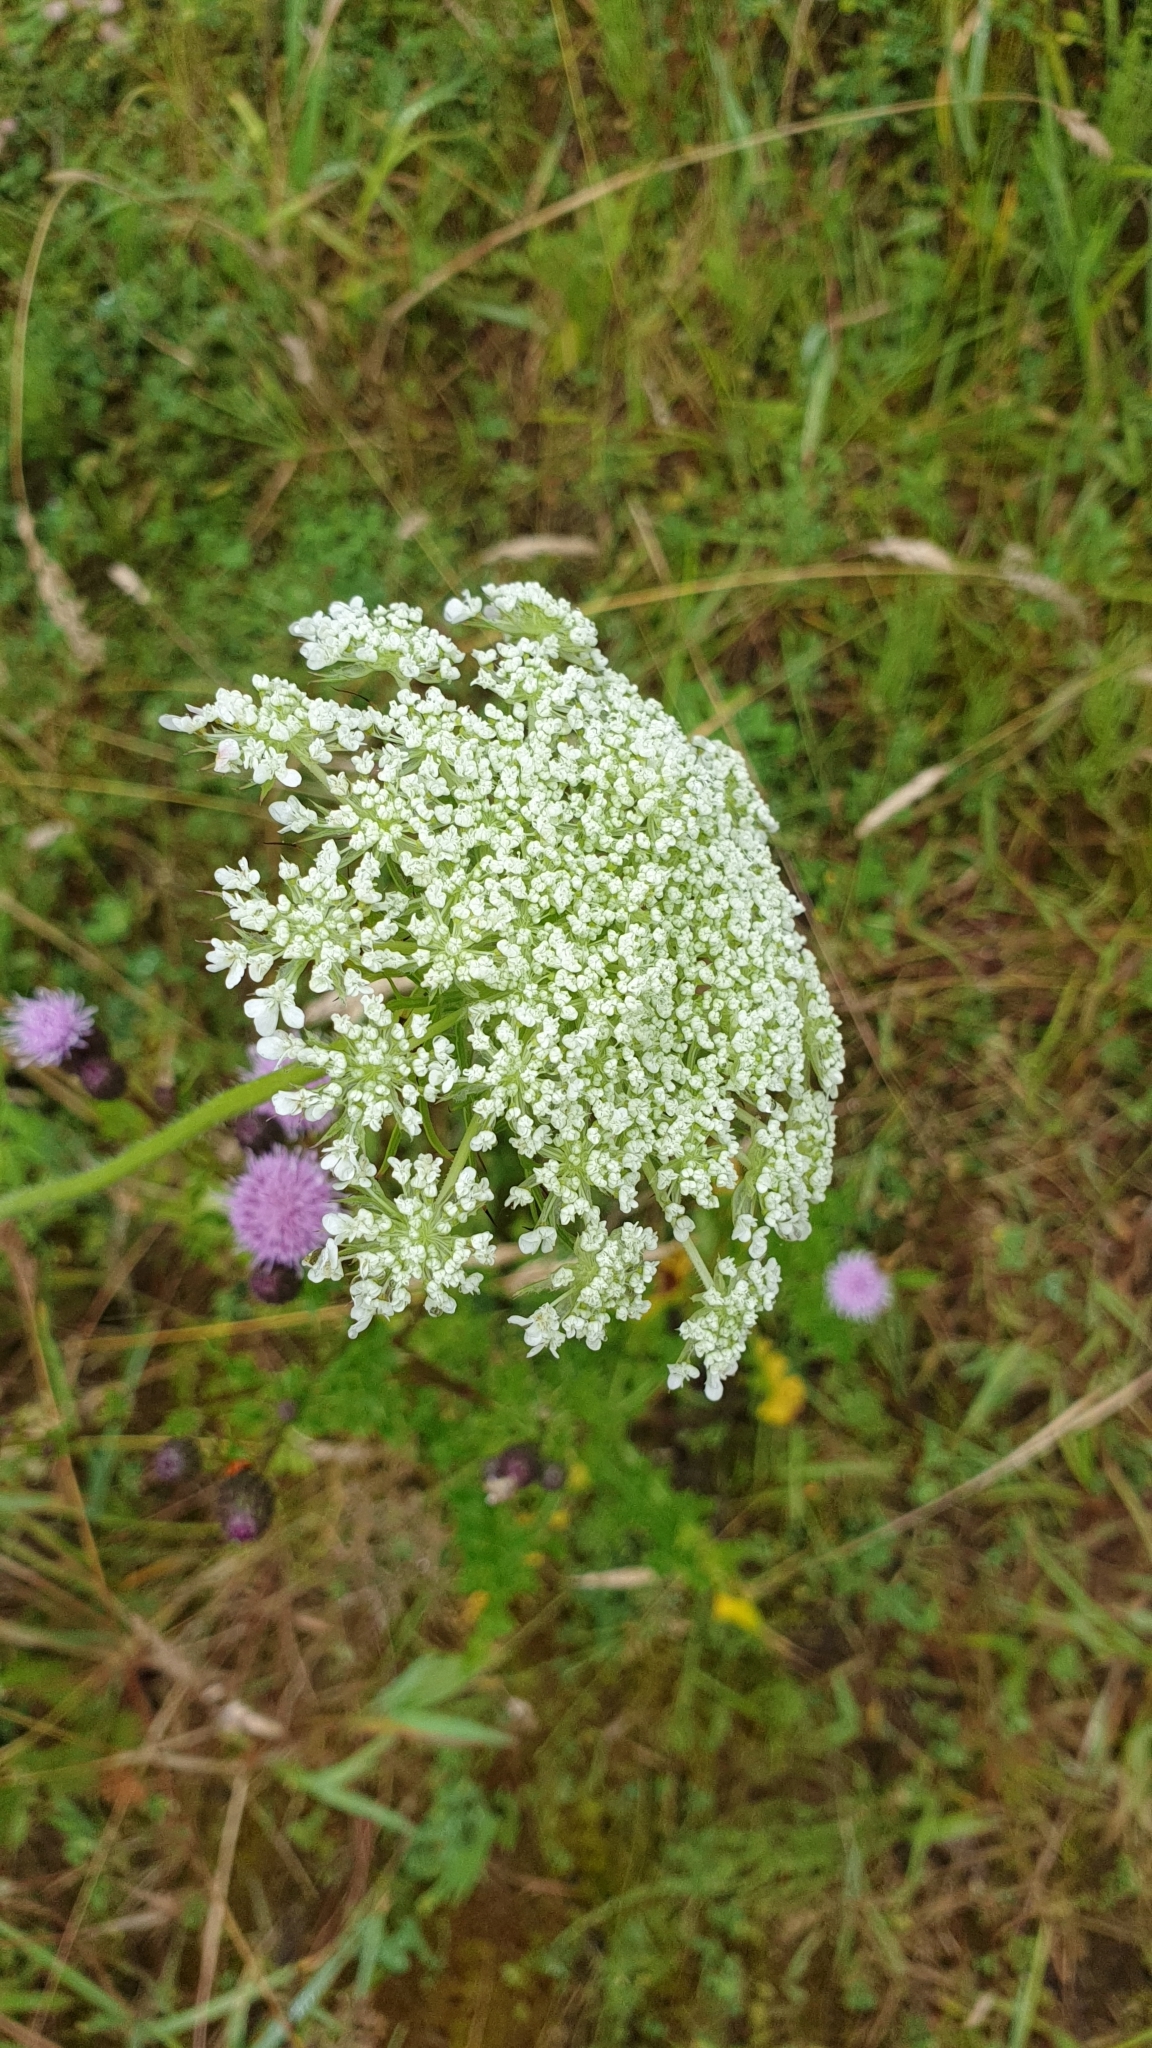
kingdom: Plantae
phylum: Tracheophyta
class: Magnoliopsida
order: Apiales
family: Apiaceae
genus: Daucus
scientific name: Daucus carota
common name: Wild carrot
